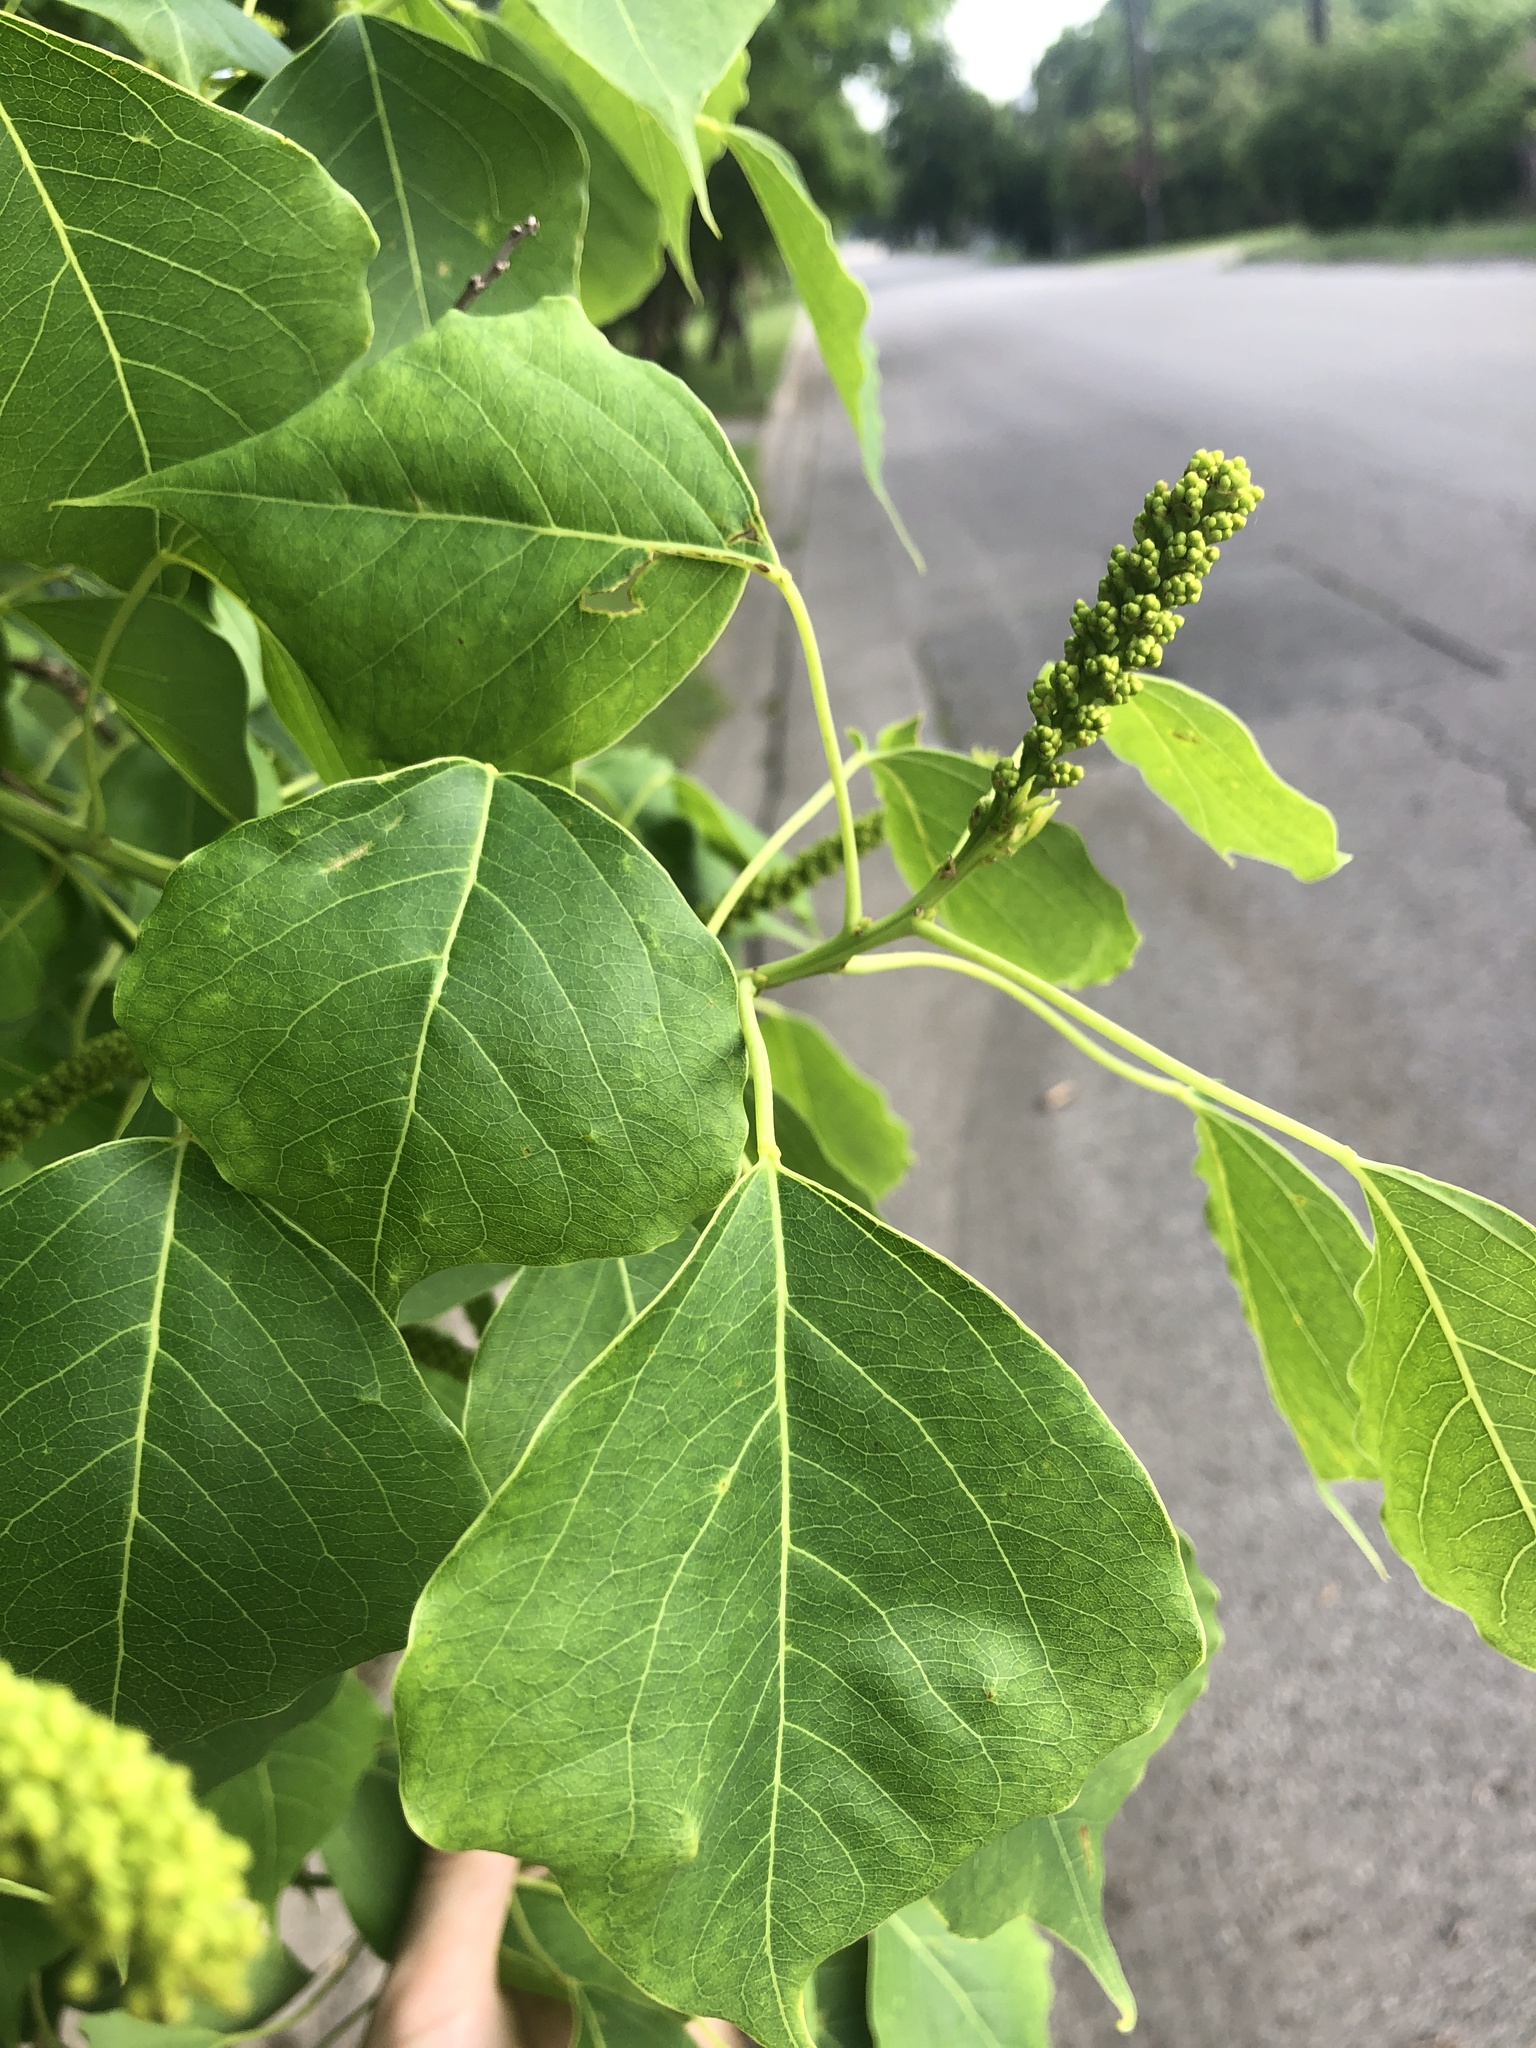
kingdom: Plantae
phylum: Tracheophyta
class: Magnoliopsida
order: Malpighiales
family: Euphorbiaceae
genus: Triadica
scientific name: Triadica sebifera
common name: Chinese tallow
